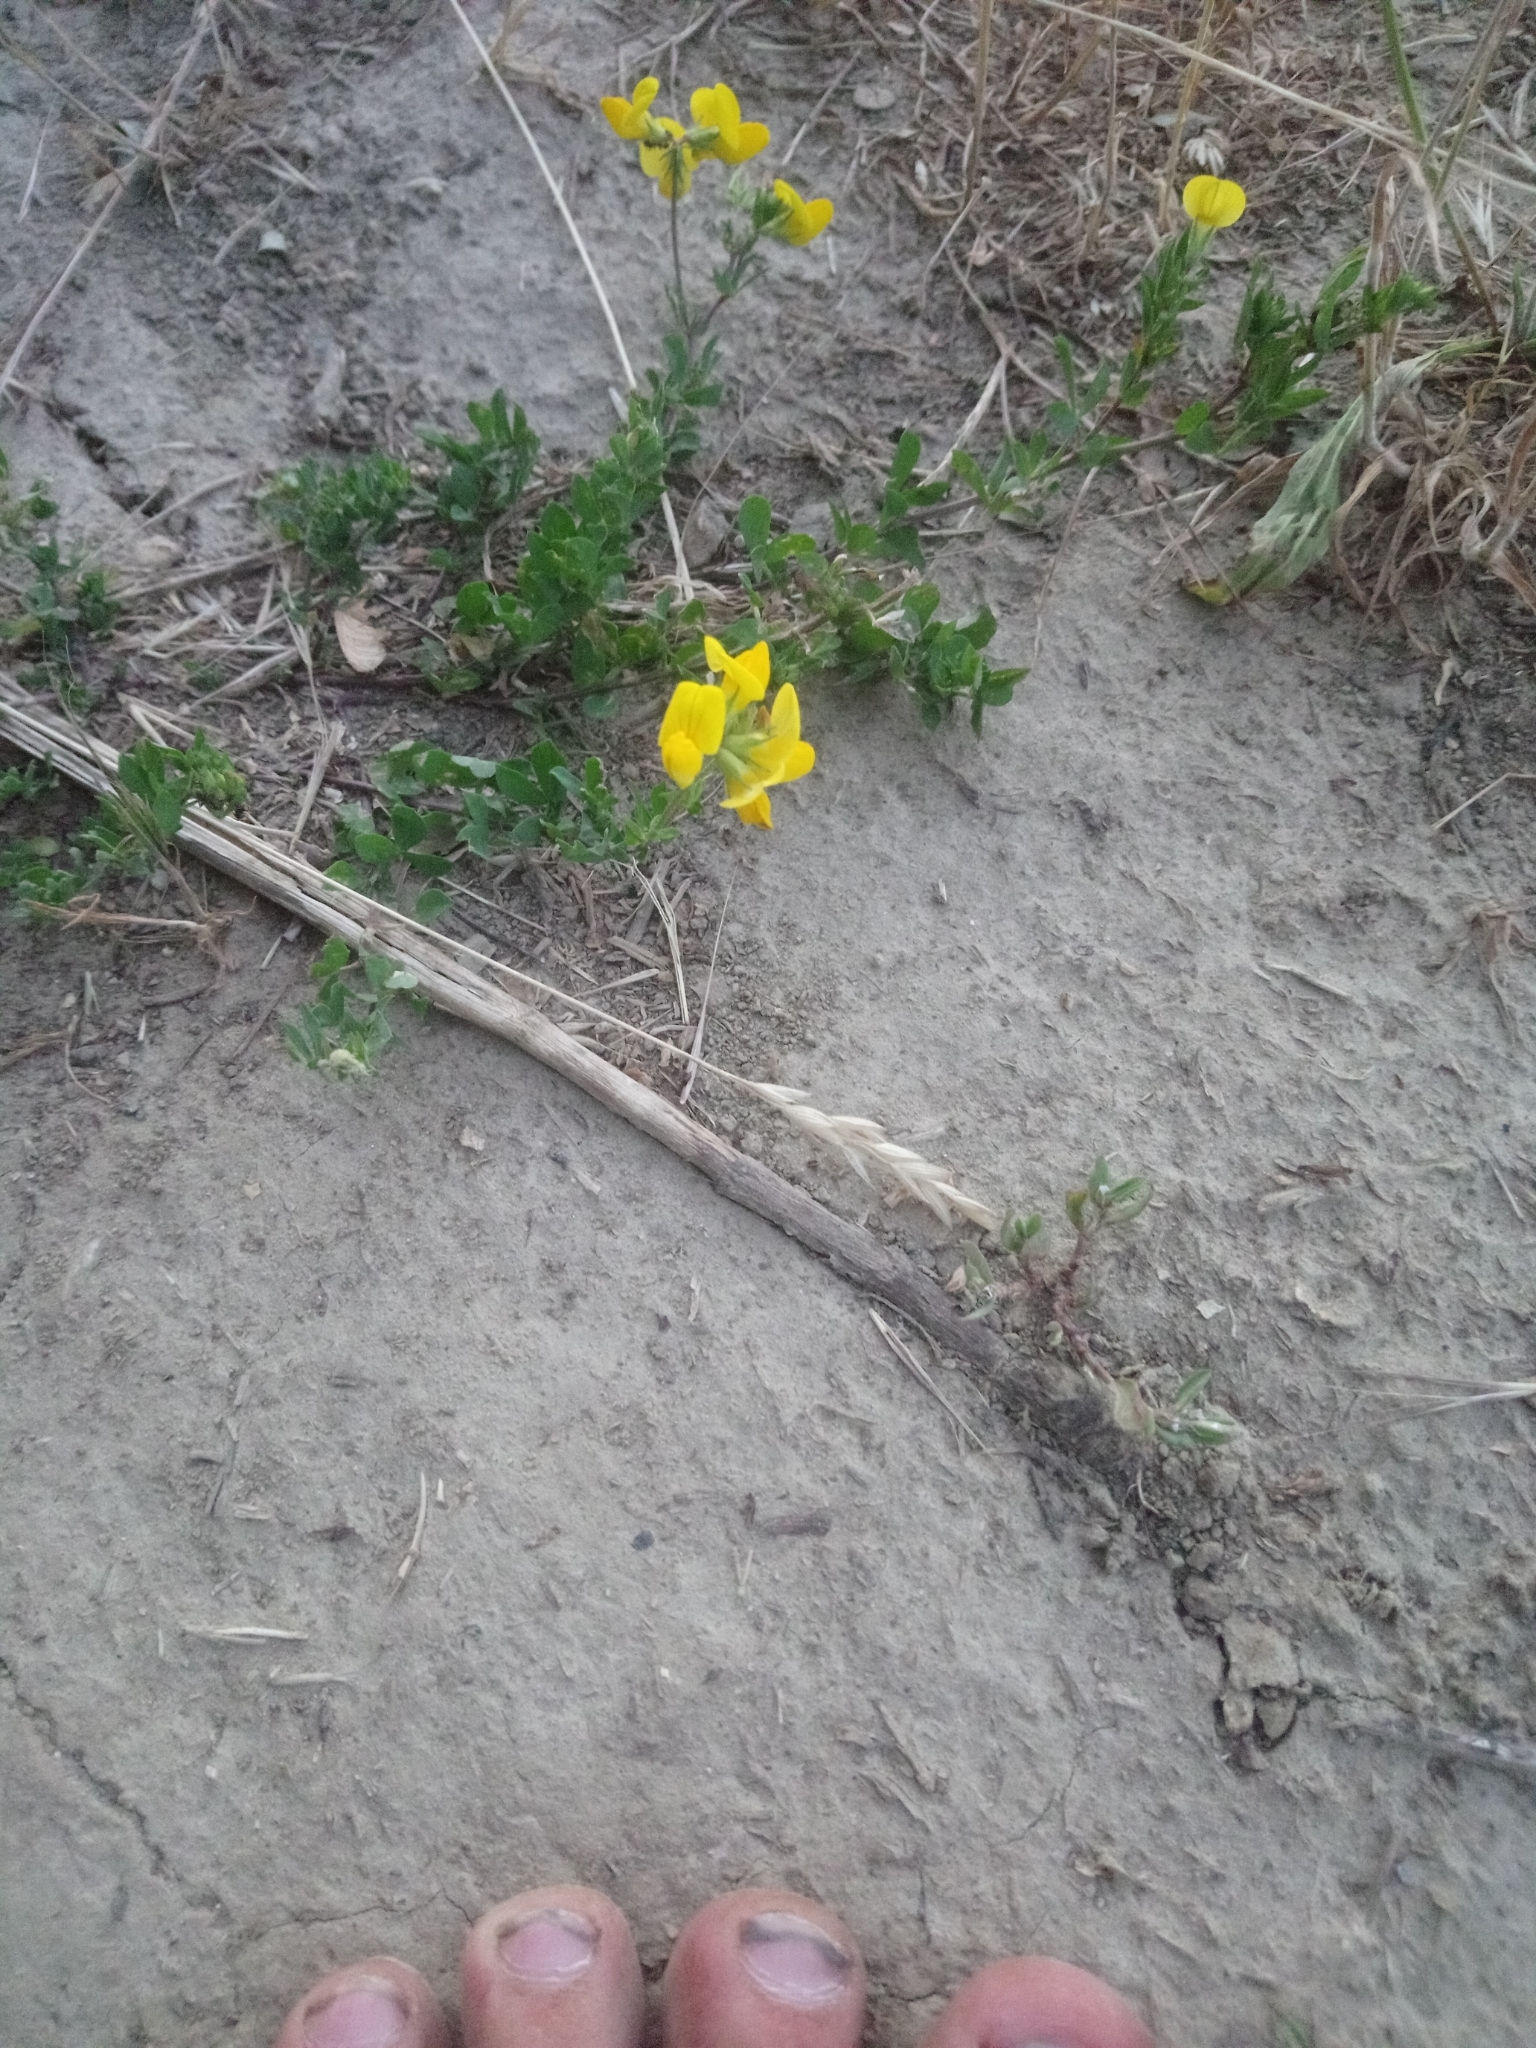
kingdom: Plantae
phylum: Tracheophyta
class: Magnoliopsida
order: Fabales
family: Fabaceae
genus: Lotus
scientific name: Lotus corniculatus
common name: Common bird's-foot-trefoil
